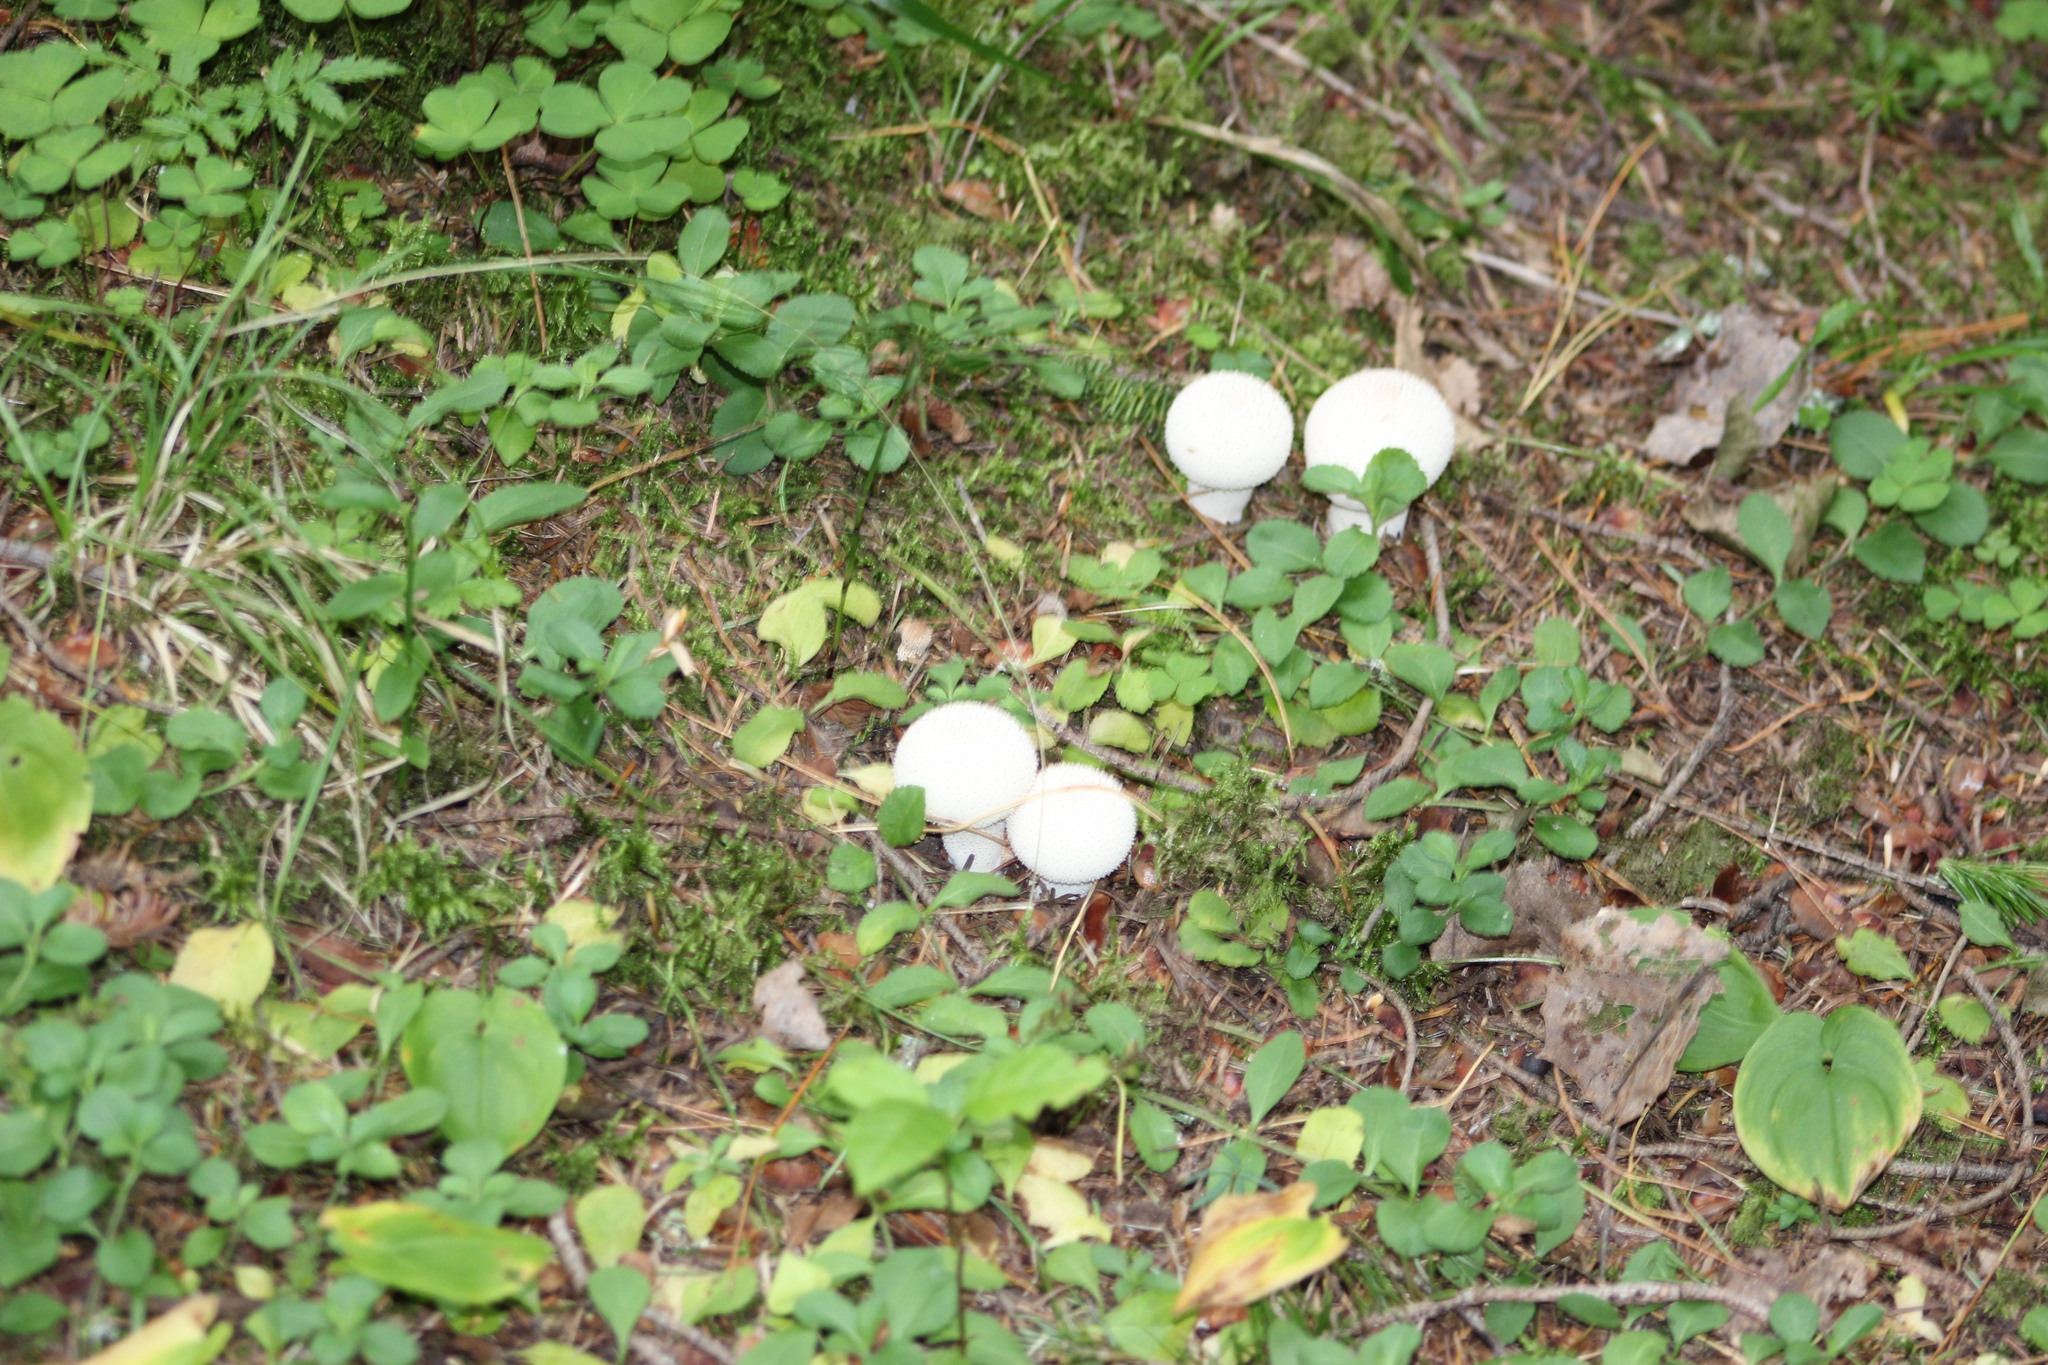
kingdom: Plantae
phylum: Tracheophyta
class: Magnoliopsida
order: Lamiales
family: Plantaginaceae
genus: Veronica
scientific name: Veronica officinalis
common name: Common speedwell
